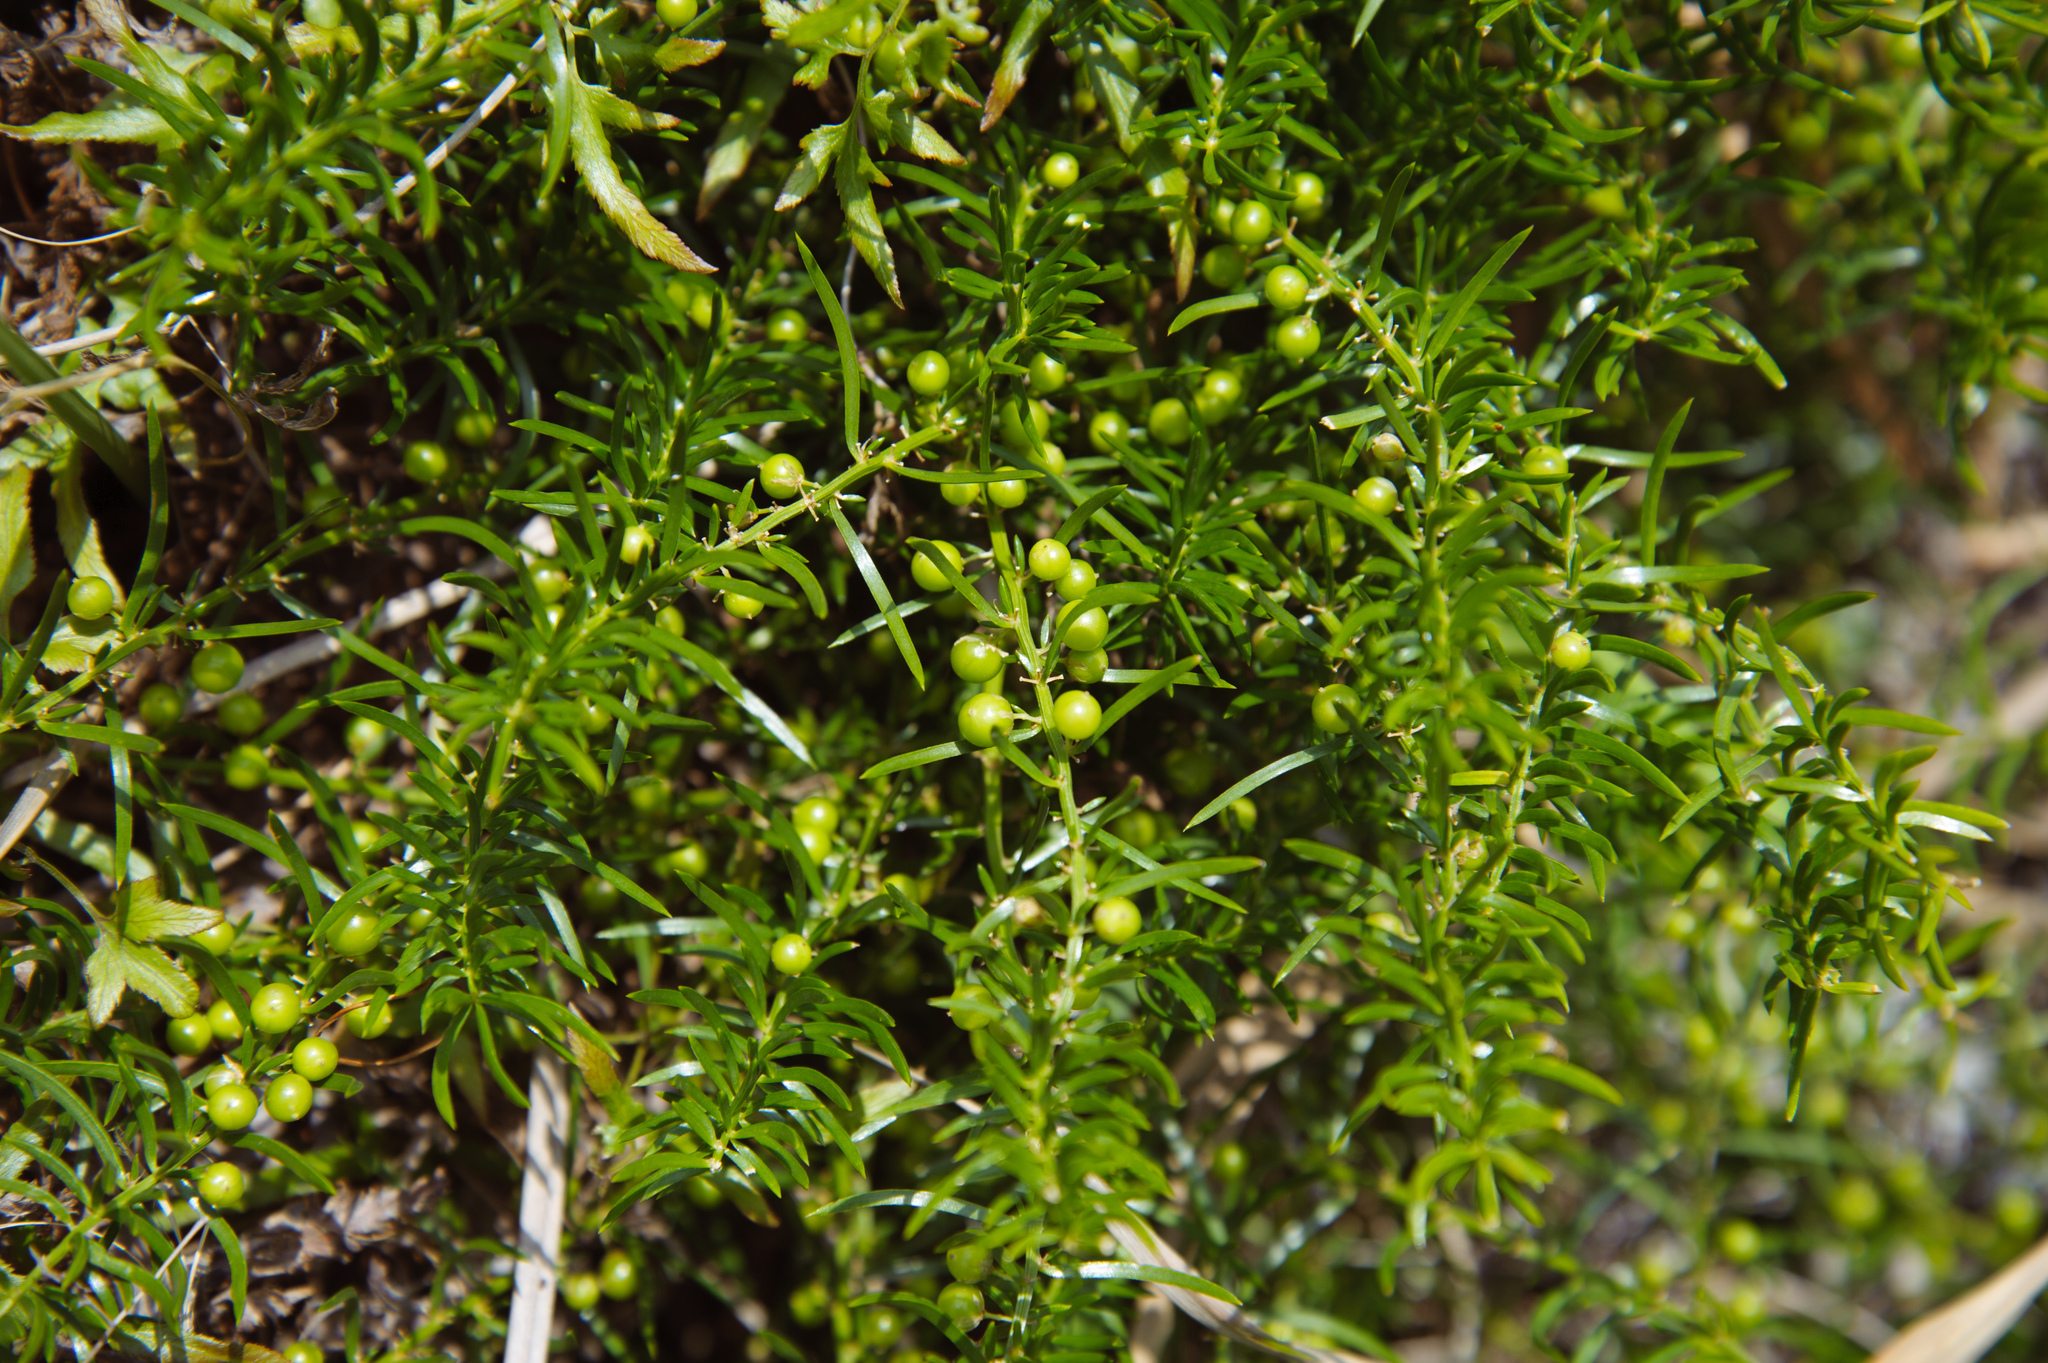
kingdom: Plantae
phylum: Tracheophyta
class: Liliopsida
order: Asparagales
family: Asparagaceae
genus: Asparagus
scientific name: Asparagus cochinchinensis
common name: Chinese asparagus
